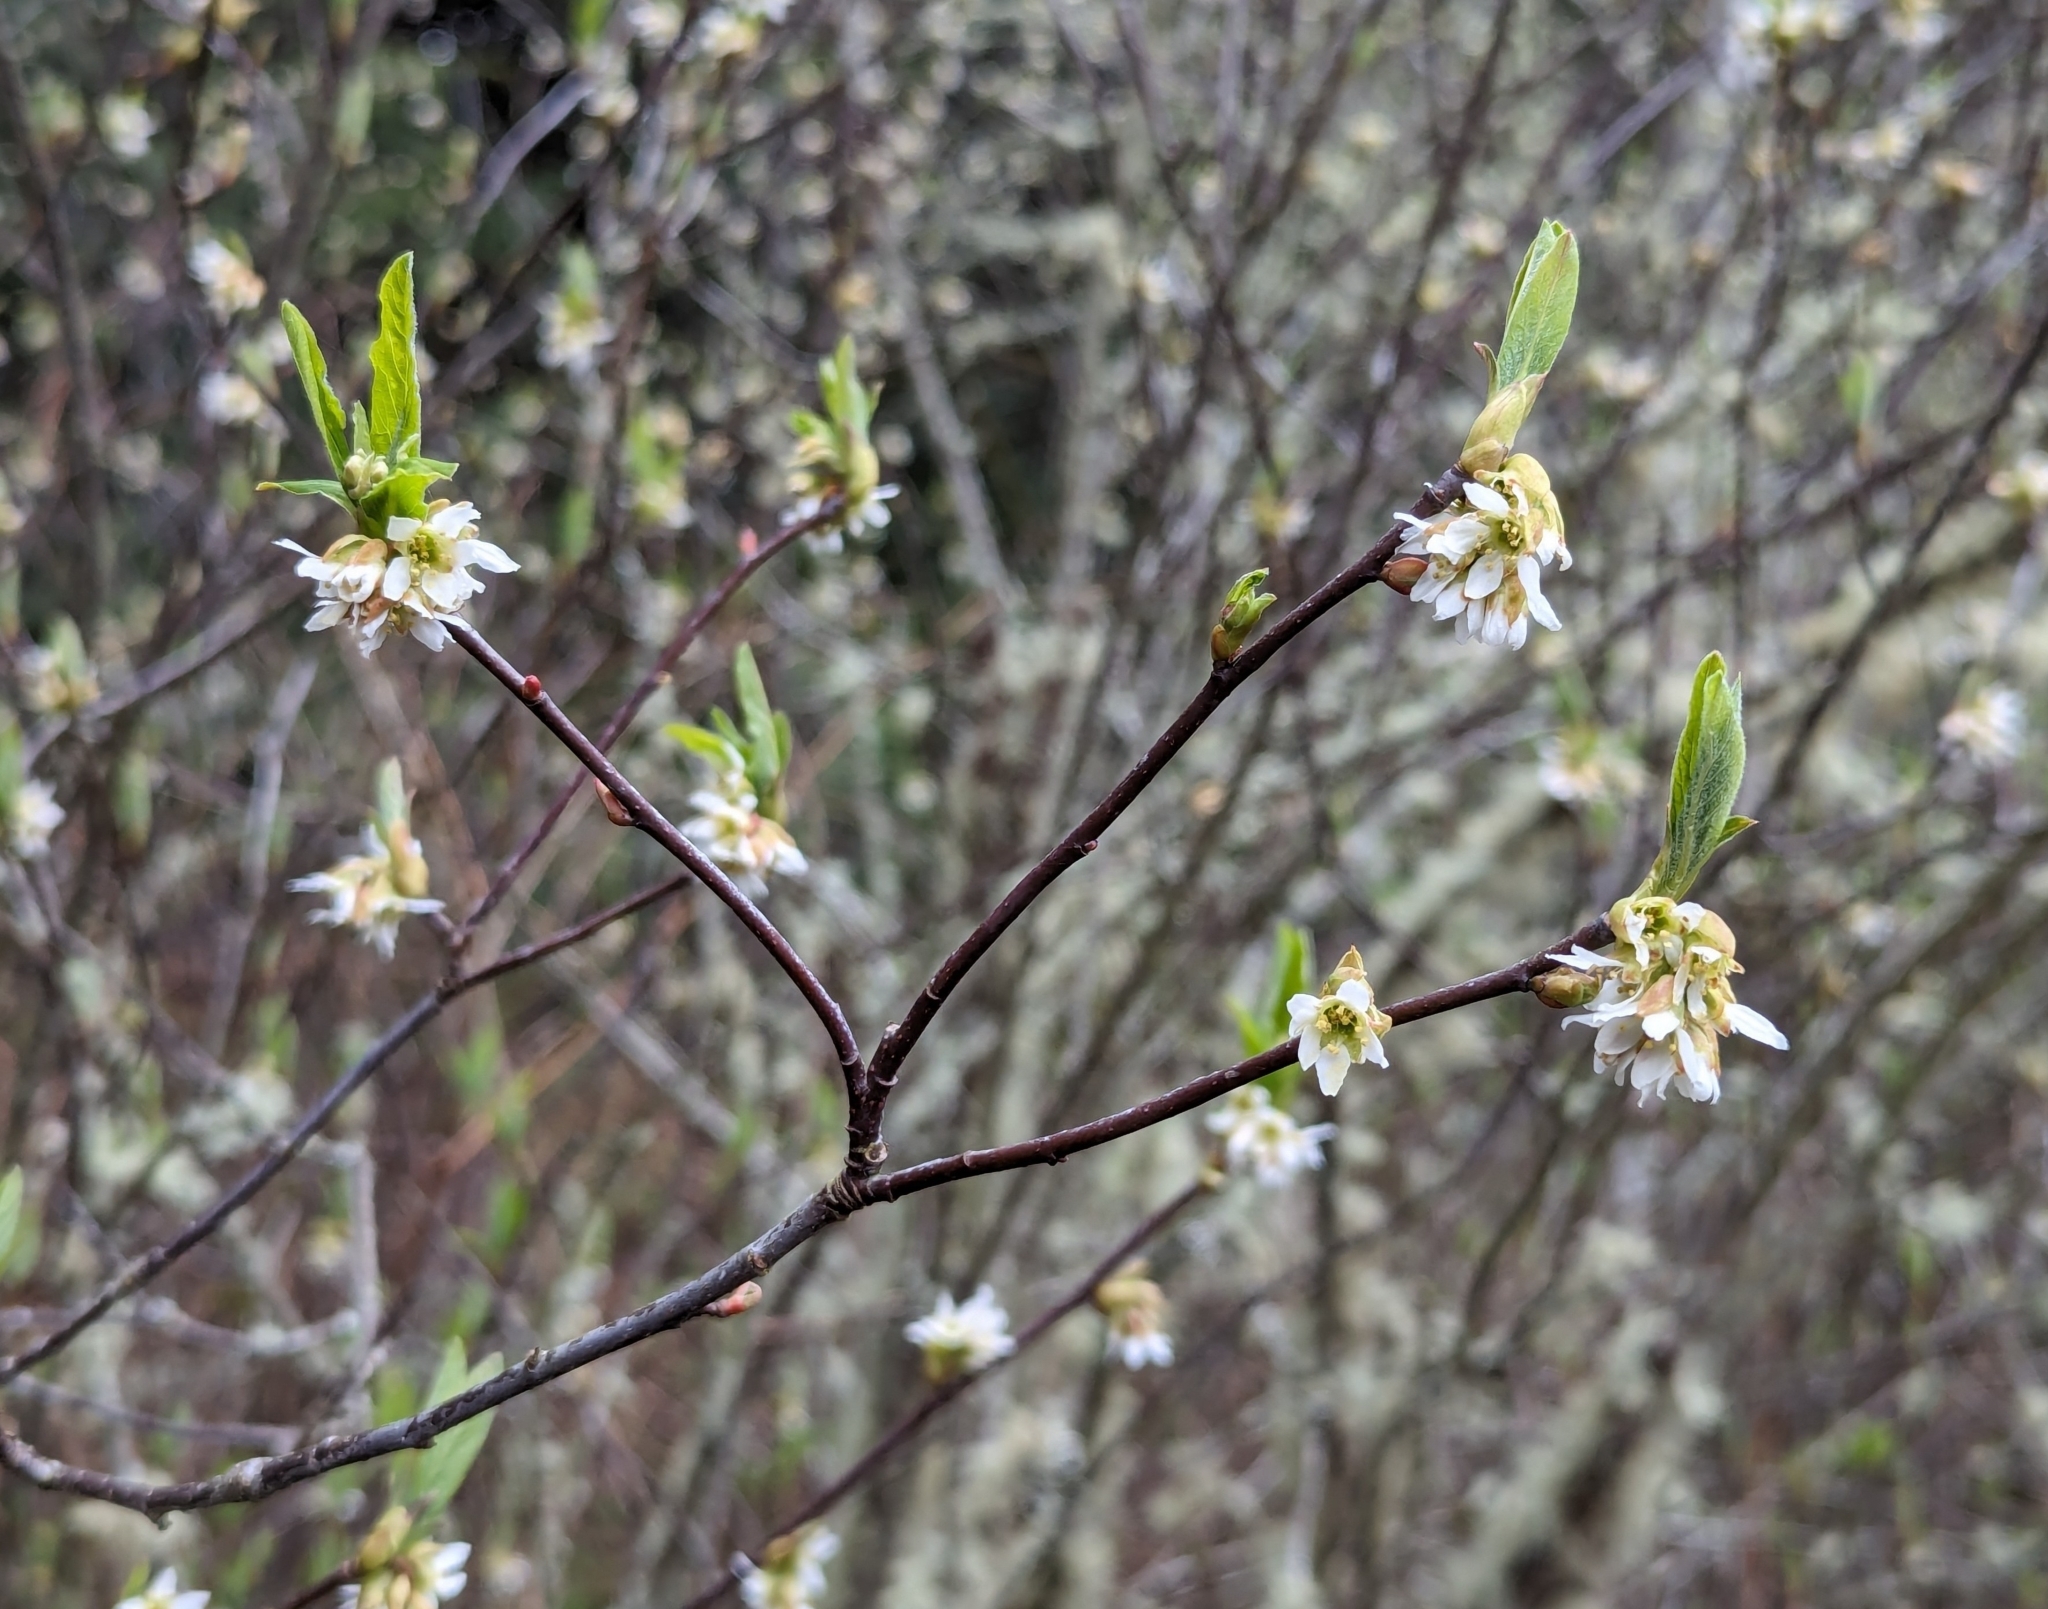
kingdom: Plantae
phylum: Tracheophyta
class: Magnoliopsida
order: Rosales
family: Rosaceae
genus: Oemleria
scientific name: Oemleria cerasiformis
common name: Osoberry
